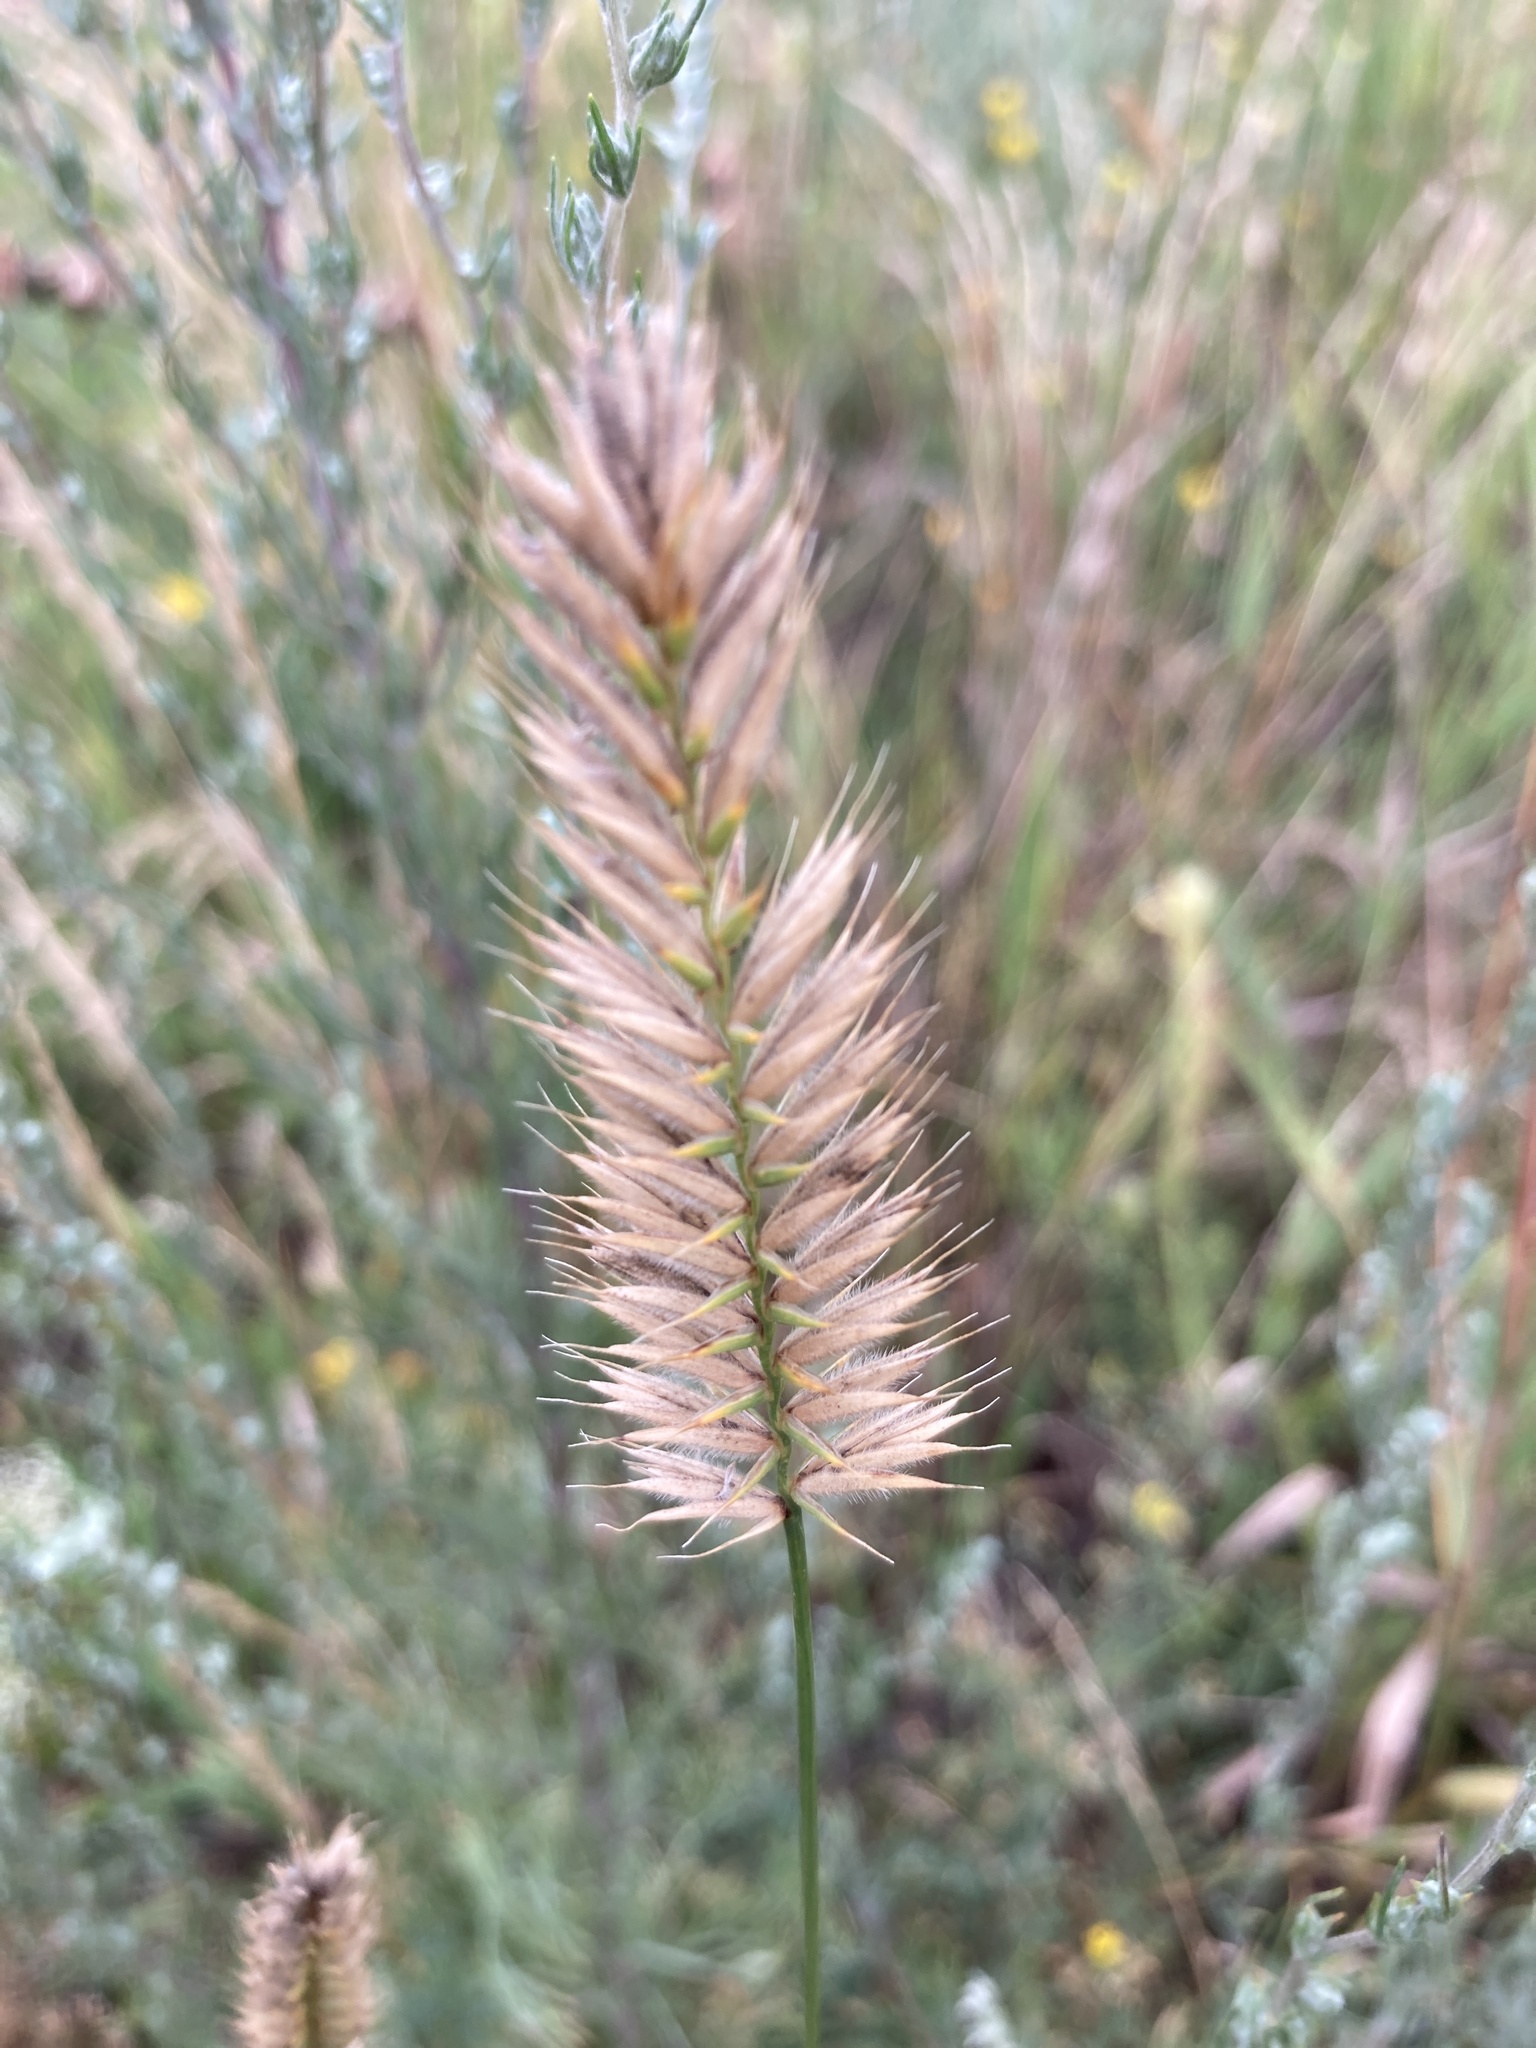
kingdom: Plantae
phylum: Tracheophyta
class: Liliopsida
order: Poales
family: Poaceae
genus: Agropyron
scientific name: Agropyron cristatum
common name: Crested wheatgrass
